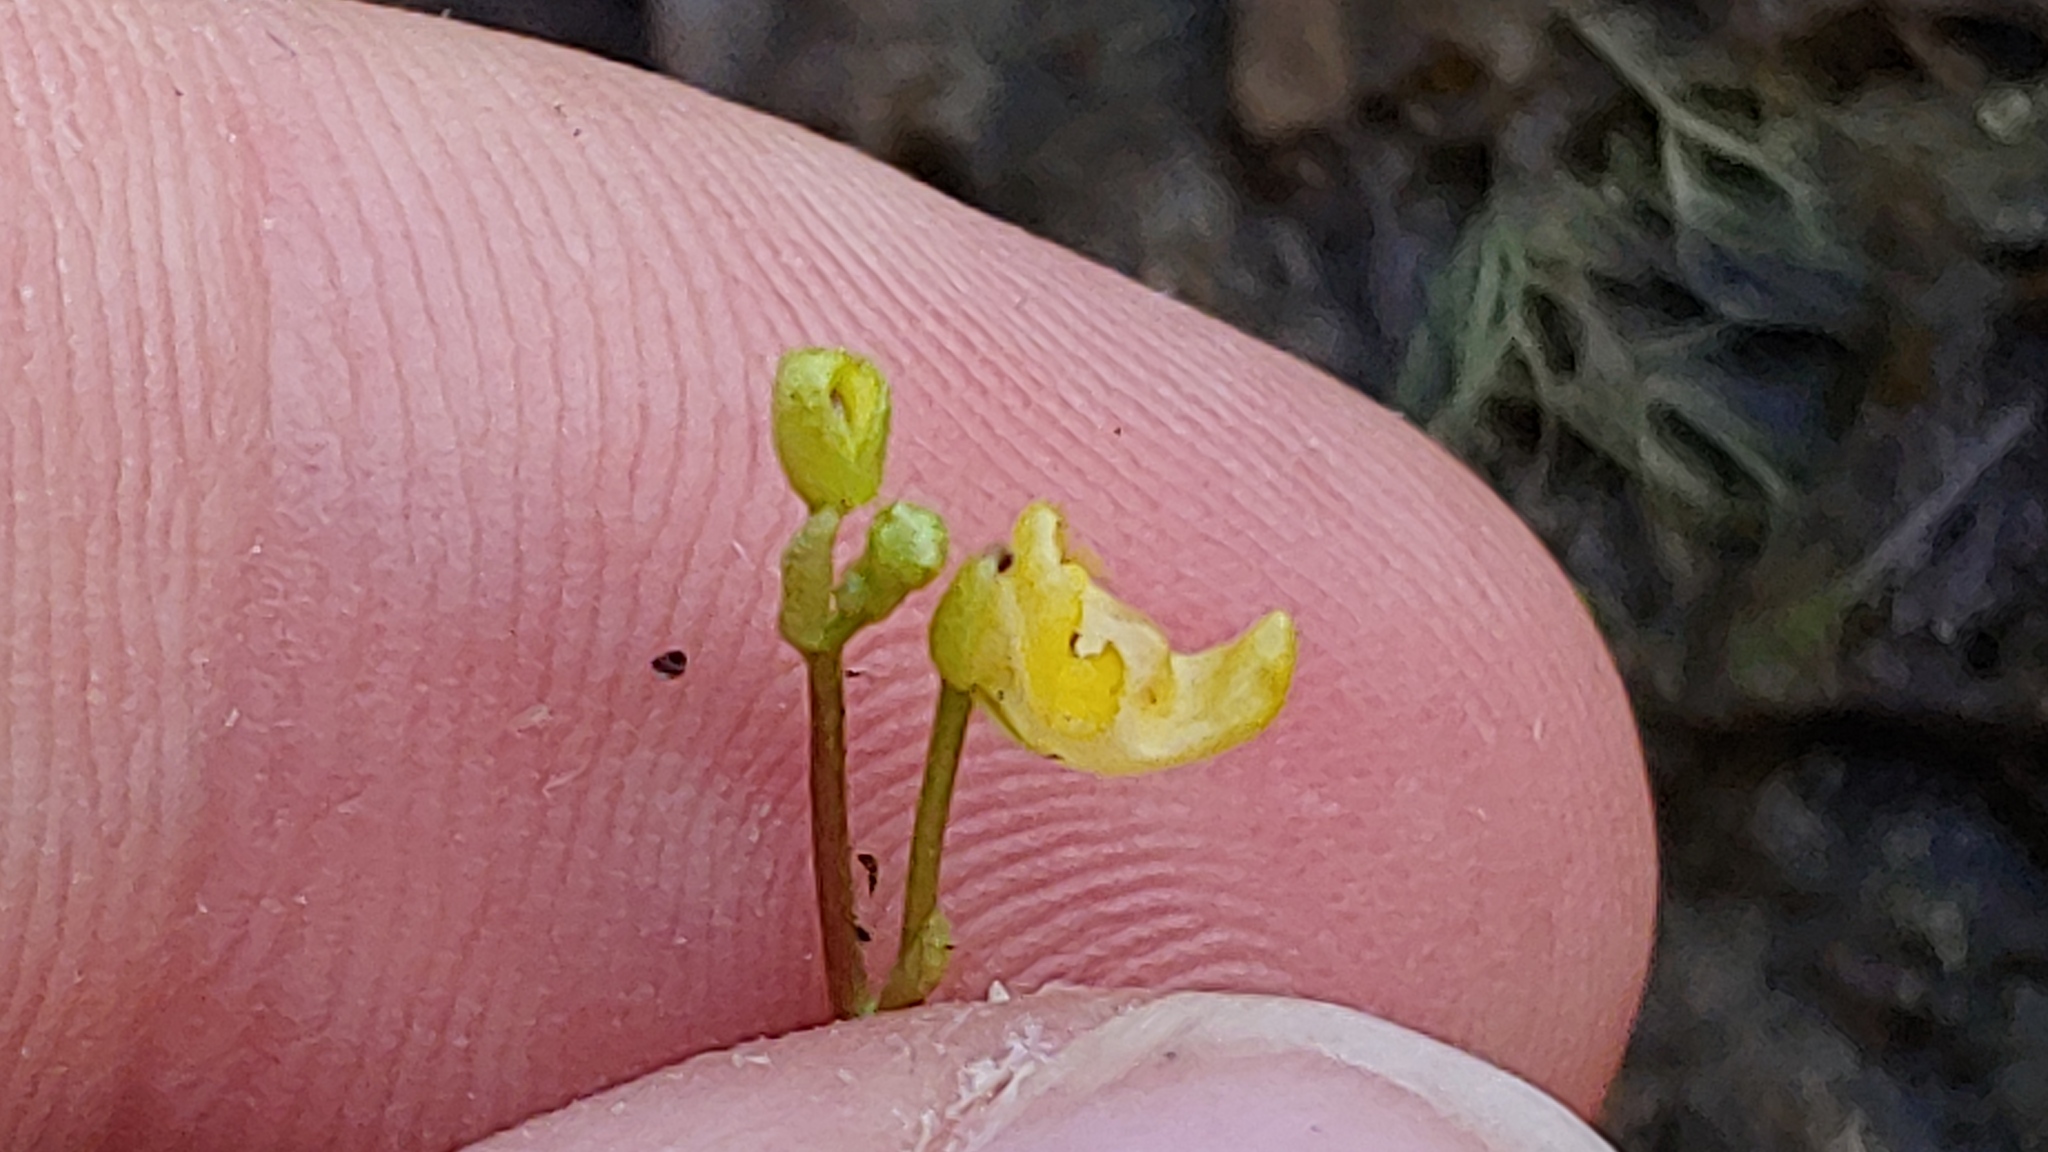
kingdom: Plantae
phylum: Tracheophyta
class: Magnoliopsida
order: Lamiales
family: Lentibulariaceae
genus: Utricularia
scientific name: Utricularia radiata
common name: Floating bladderwort
